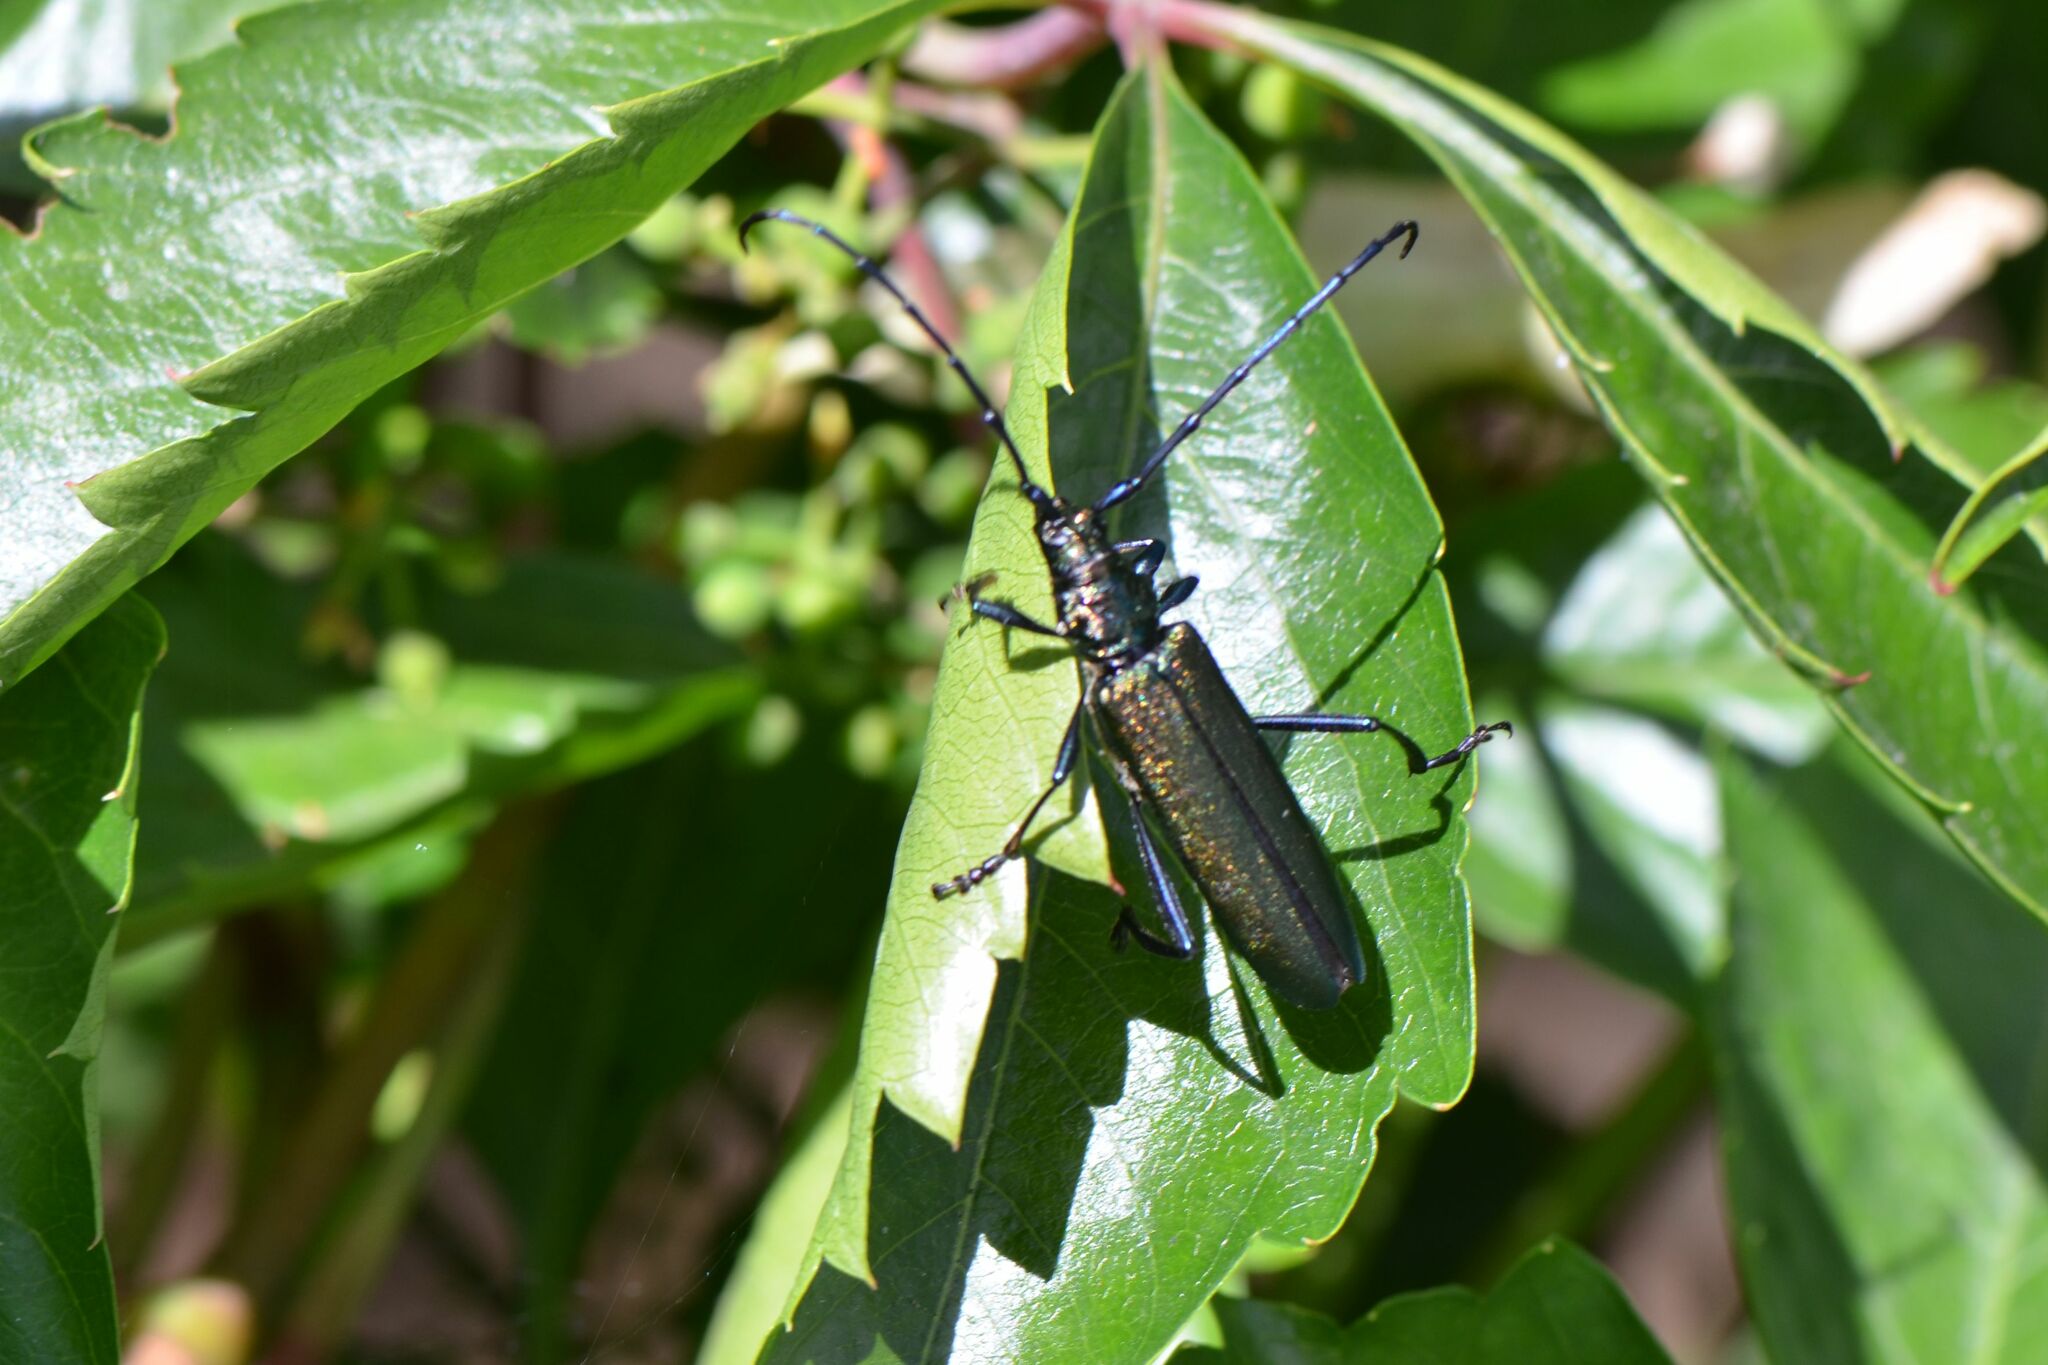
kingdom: Animalia
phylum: Arthropoda
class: Insecta
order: Coleoptera
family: Cerambycidae
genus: Aromia
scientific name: Aromia moschata
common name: Musk beetle
